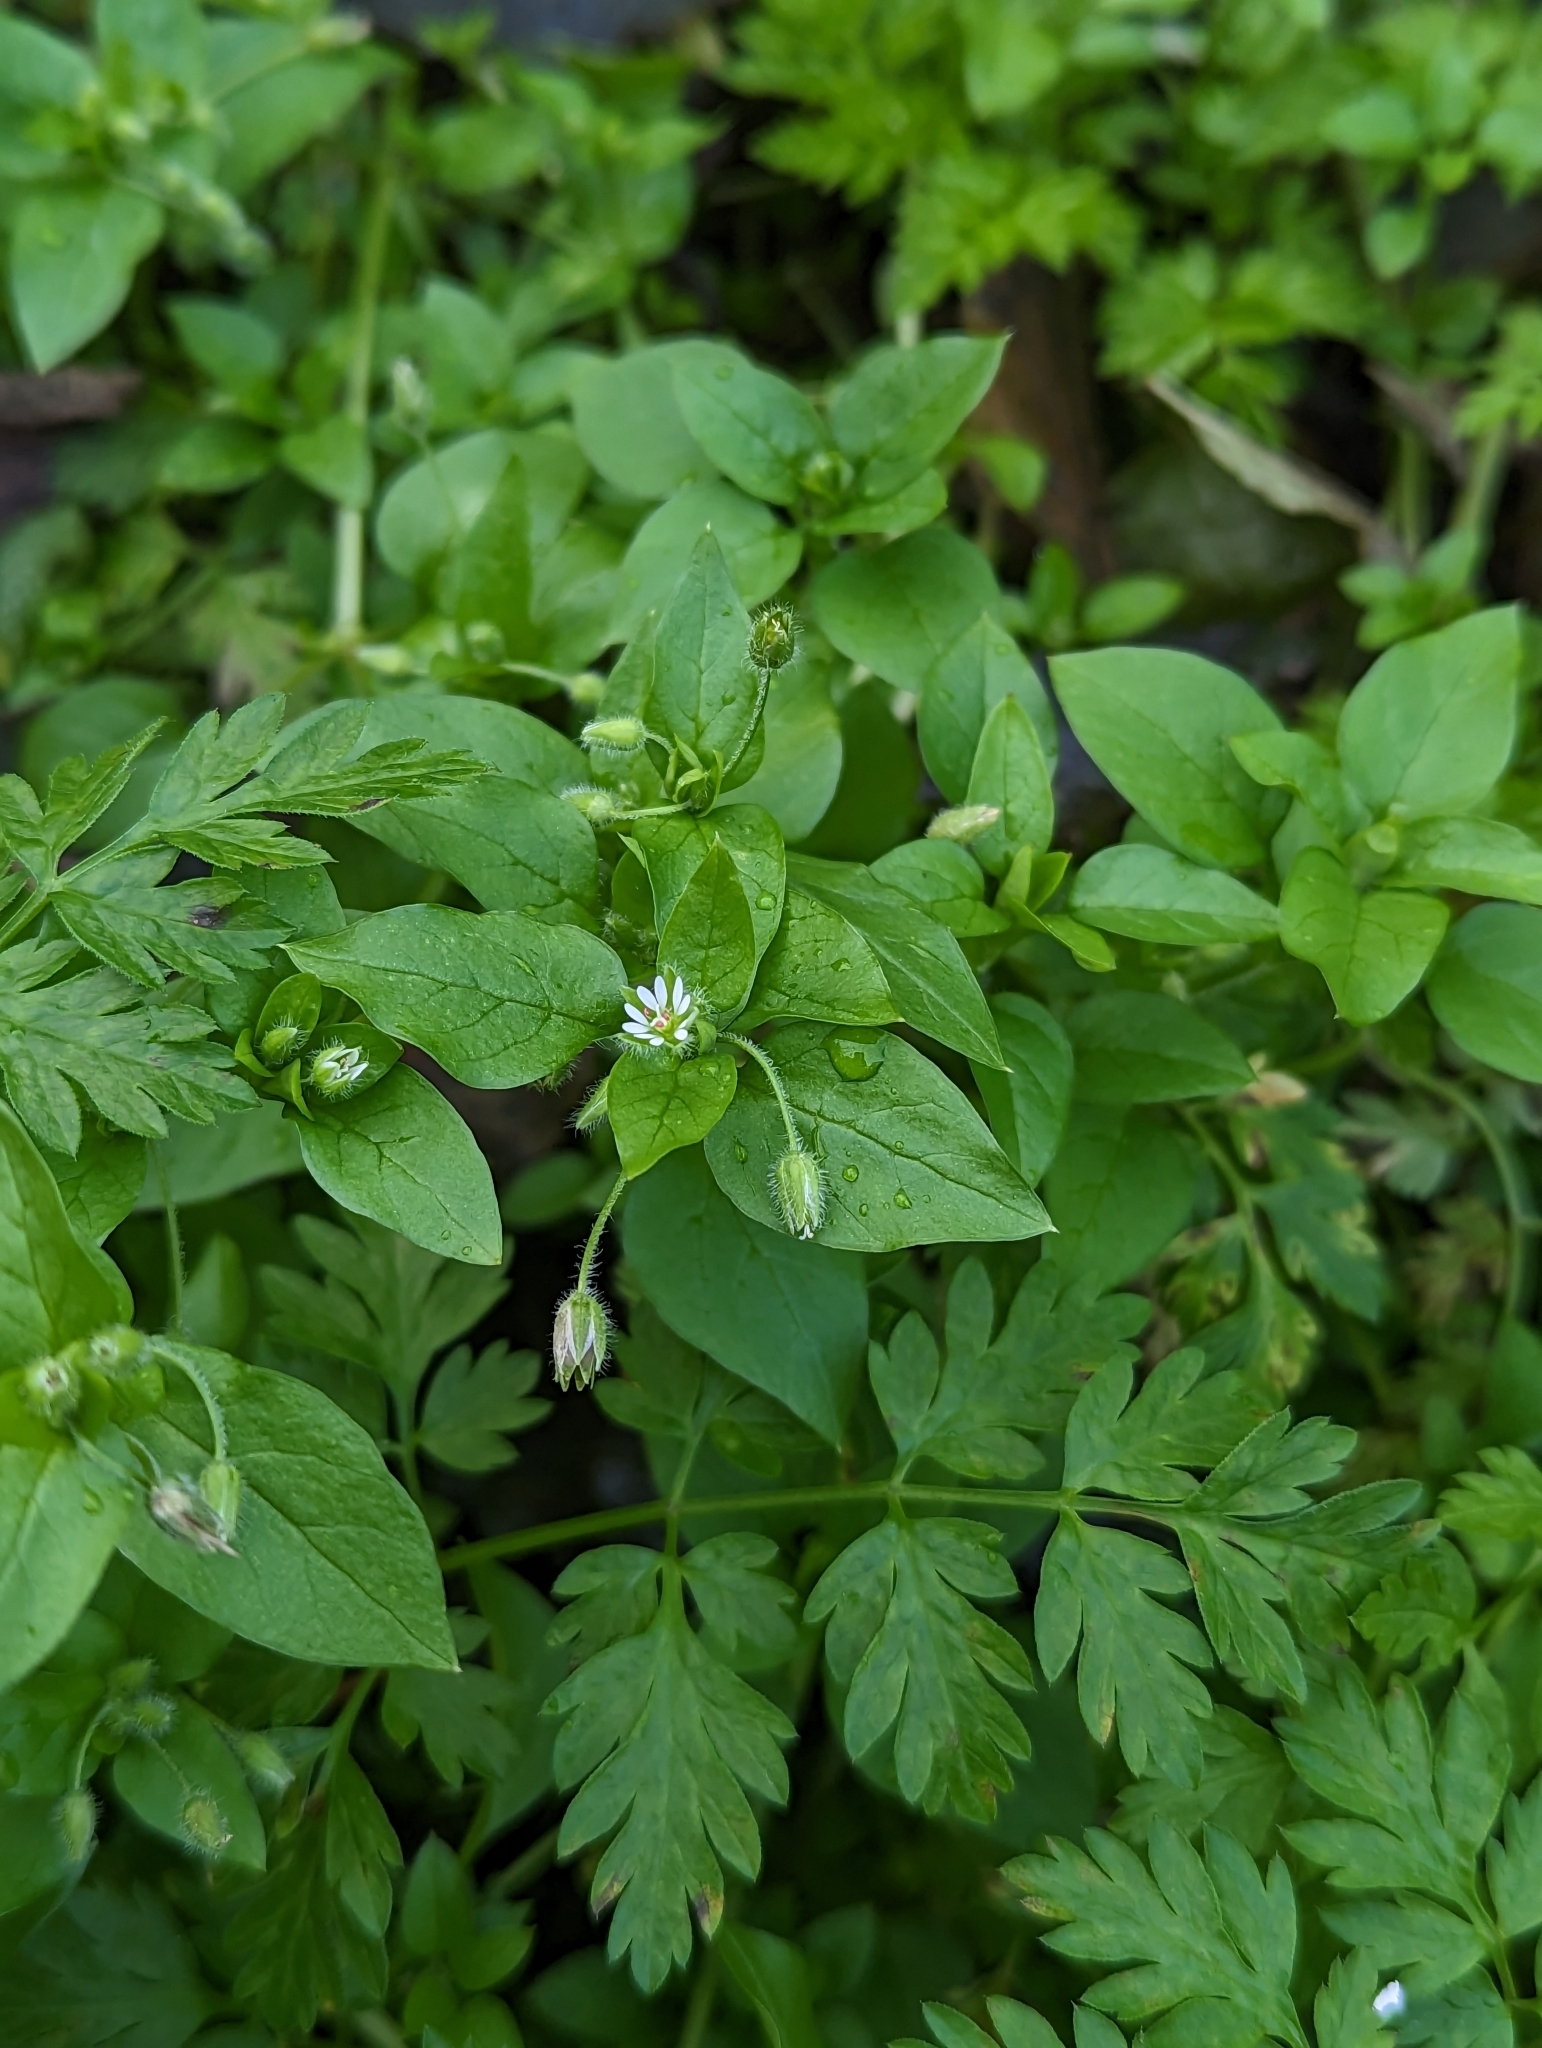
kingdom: Plantae
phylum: Tracheophyta
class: Magnoliopsida
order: Caryophyllales
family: Caryophyllaceae
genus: Stellaria
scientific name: Stellaria media
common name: Common chickweed
